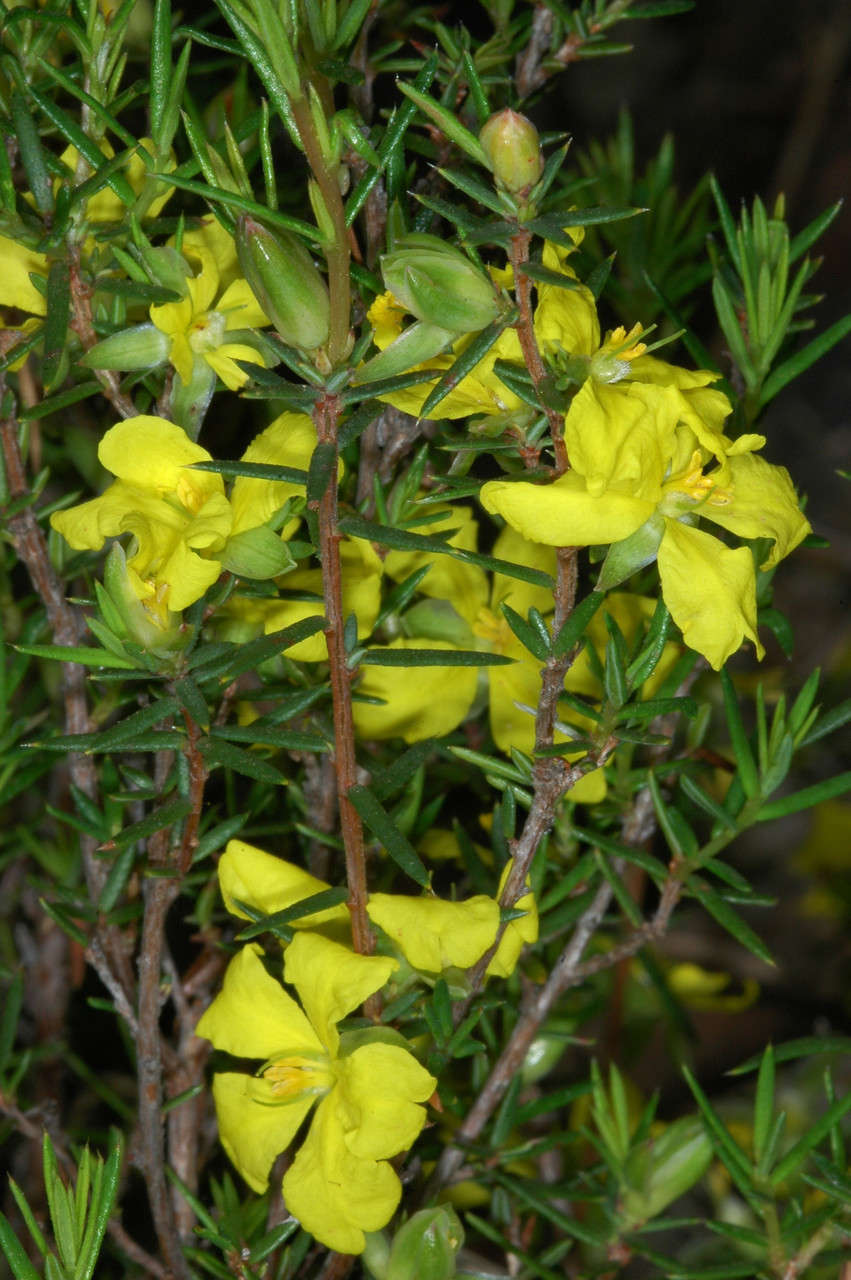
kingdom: Plantae
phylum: Tracheophyta
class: Magnoliopsida
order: Dilleniales
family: Dilleniaceae
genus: Hibbertia
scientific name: Hibbertia exutiacies
